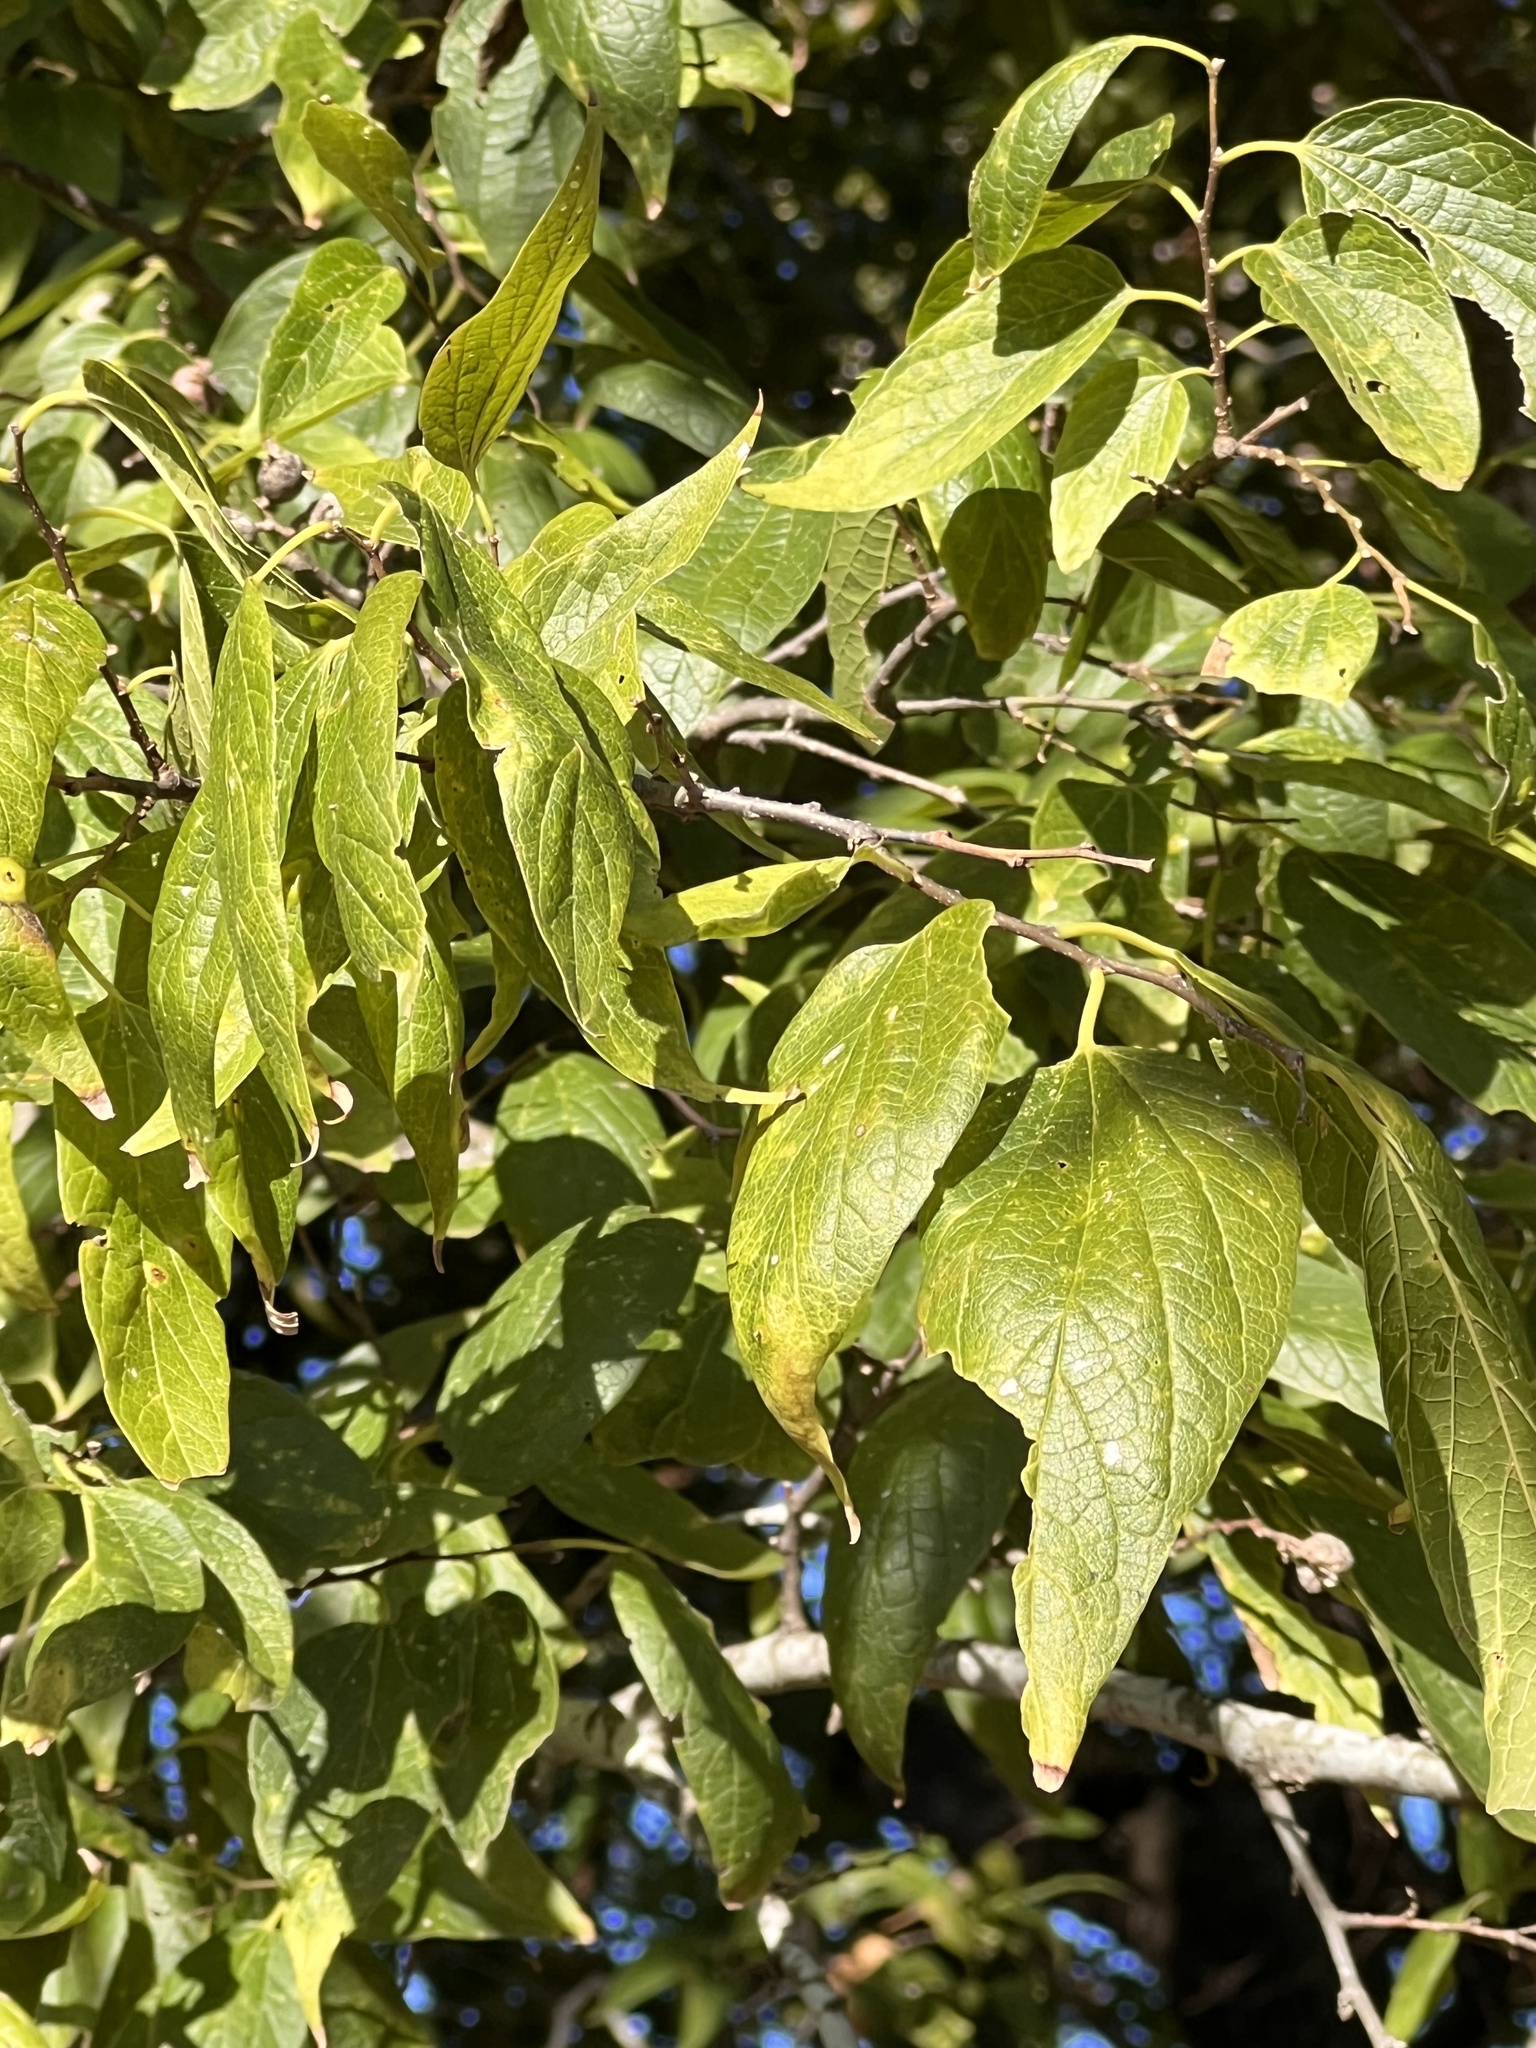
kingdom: Plantae
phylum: Tracheophyta
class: Magnoliopsida
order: Rosales
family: Cannabaceae
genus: Celtis
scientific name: Celtis laevigata
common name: Sugarberry
